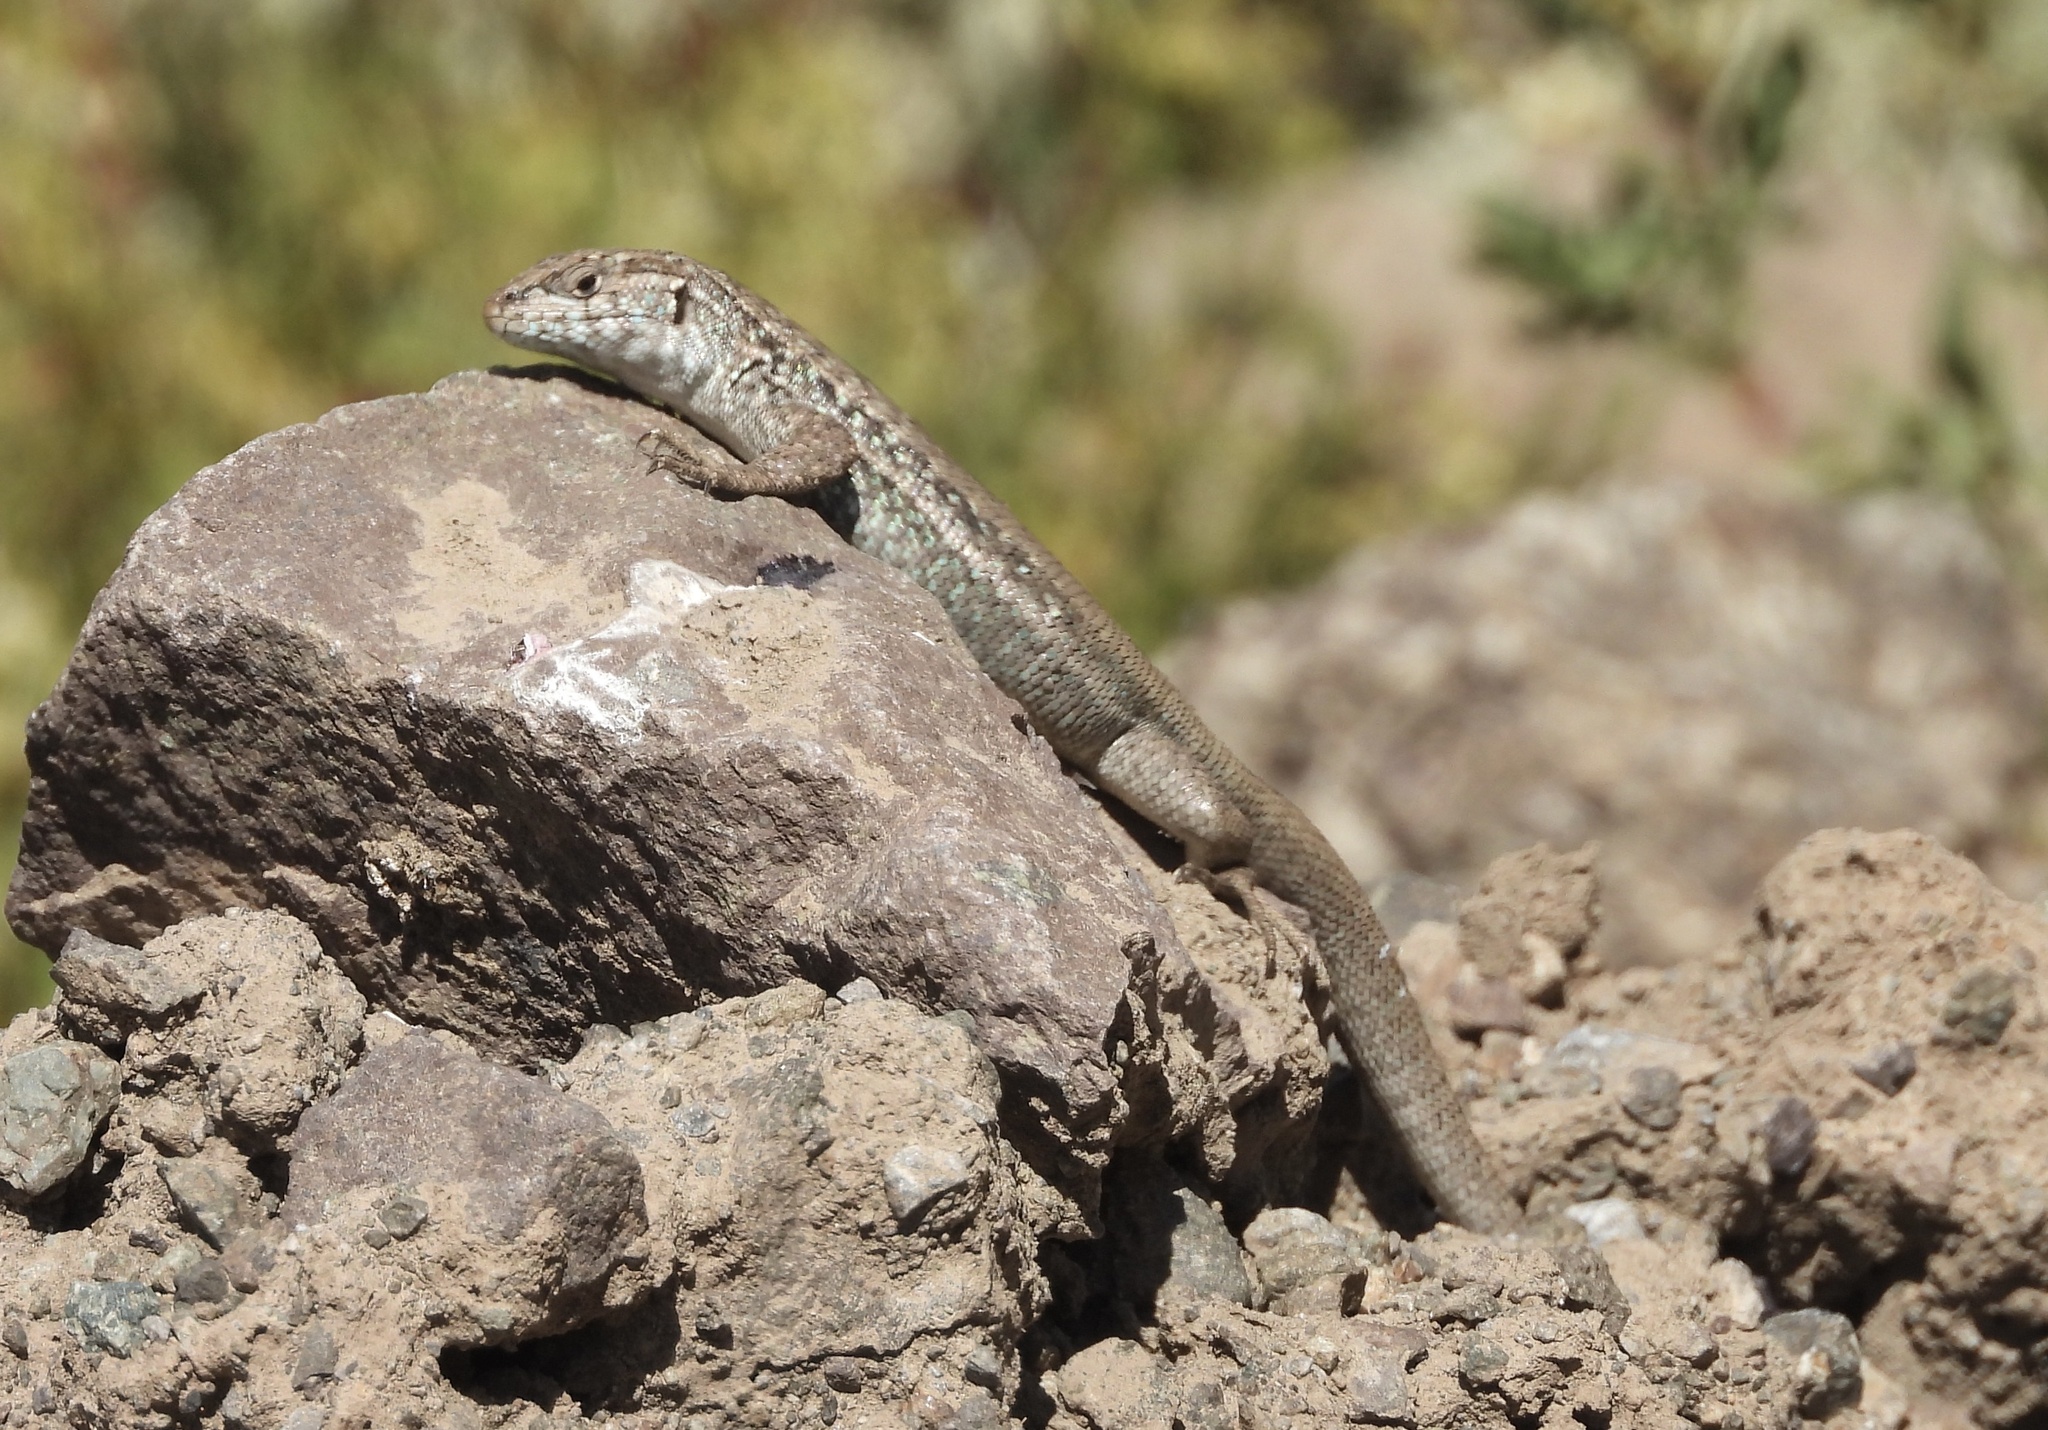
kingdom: Animalia
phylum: Chordata
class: Squamata
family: Liolaemidae
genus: Liolaemus
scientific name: Liolaemus nigroviridis
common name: Black-green tree iguana
